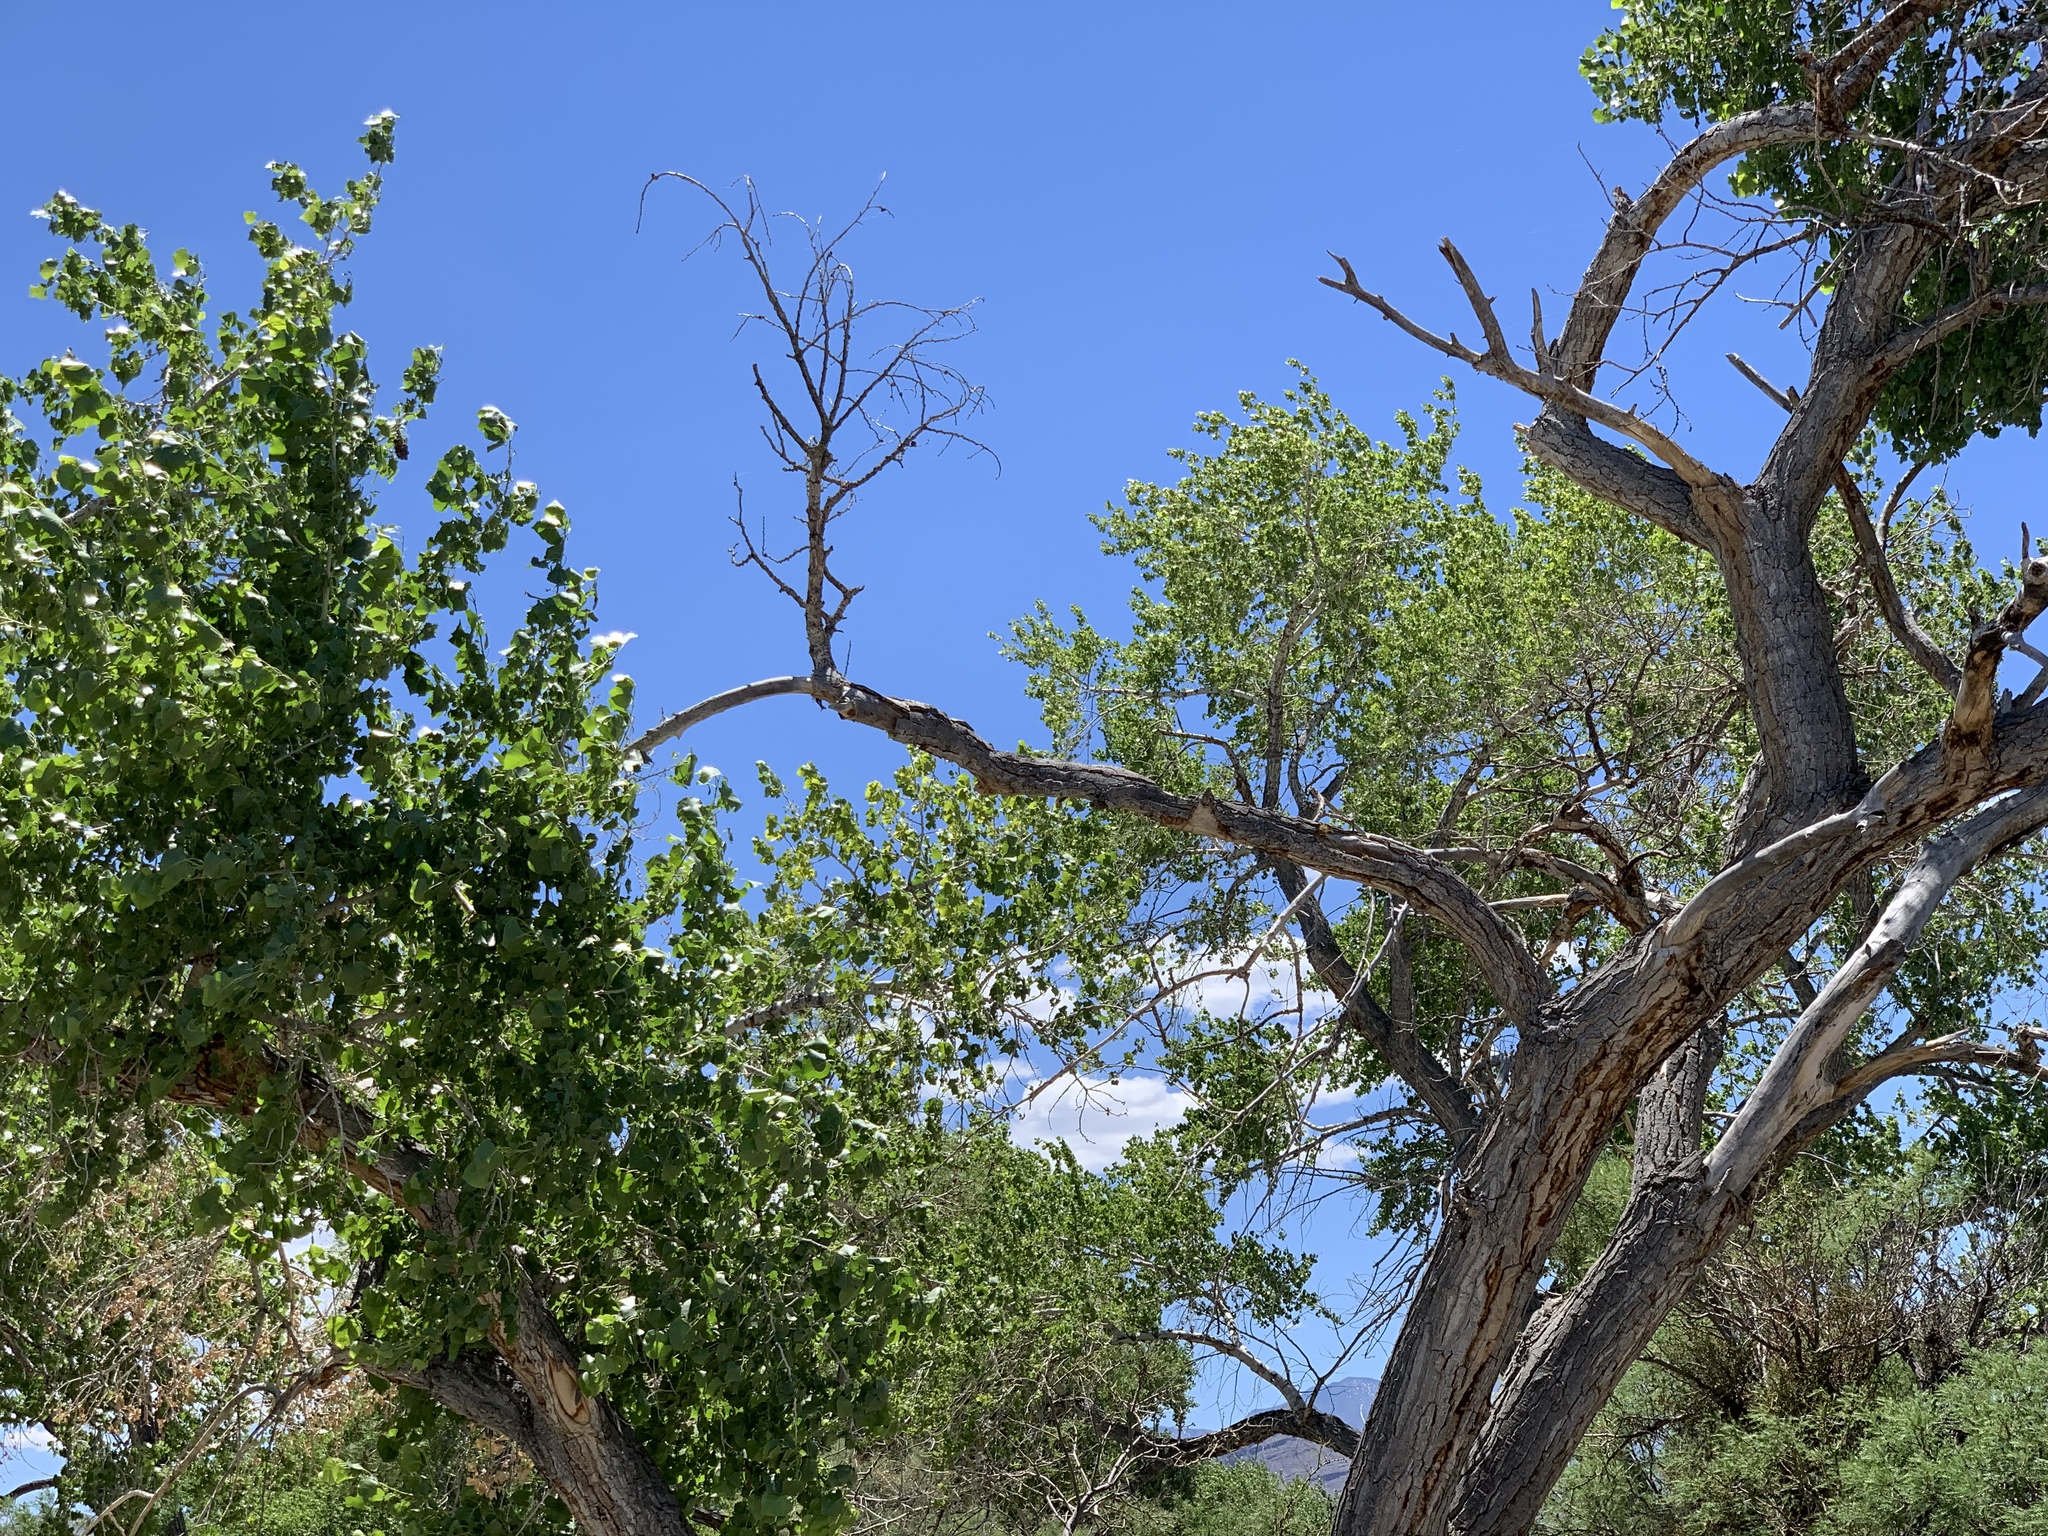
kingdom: Plantae
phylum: Tracheophyta
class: Magnoliopsida
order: Malpighiales
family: Salicaceae
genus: Populus
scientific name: Populus fremontii
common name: Fremont's cottonwood
